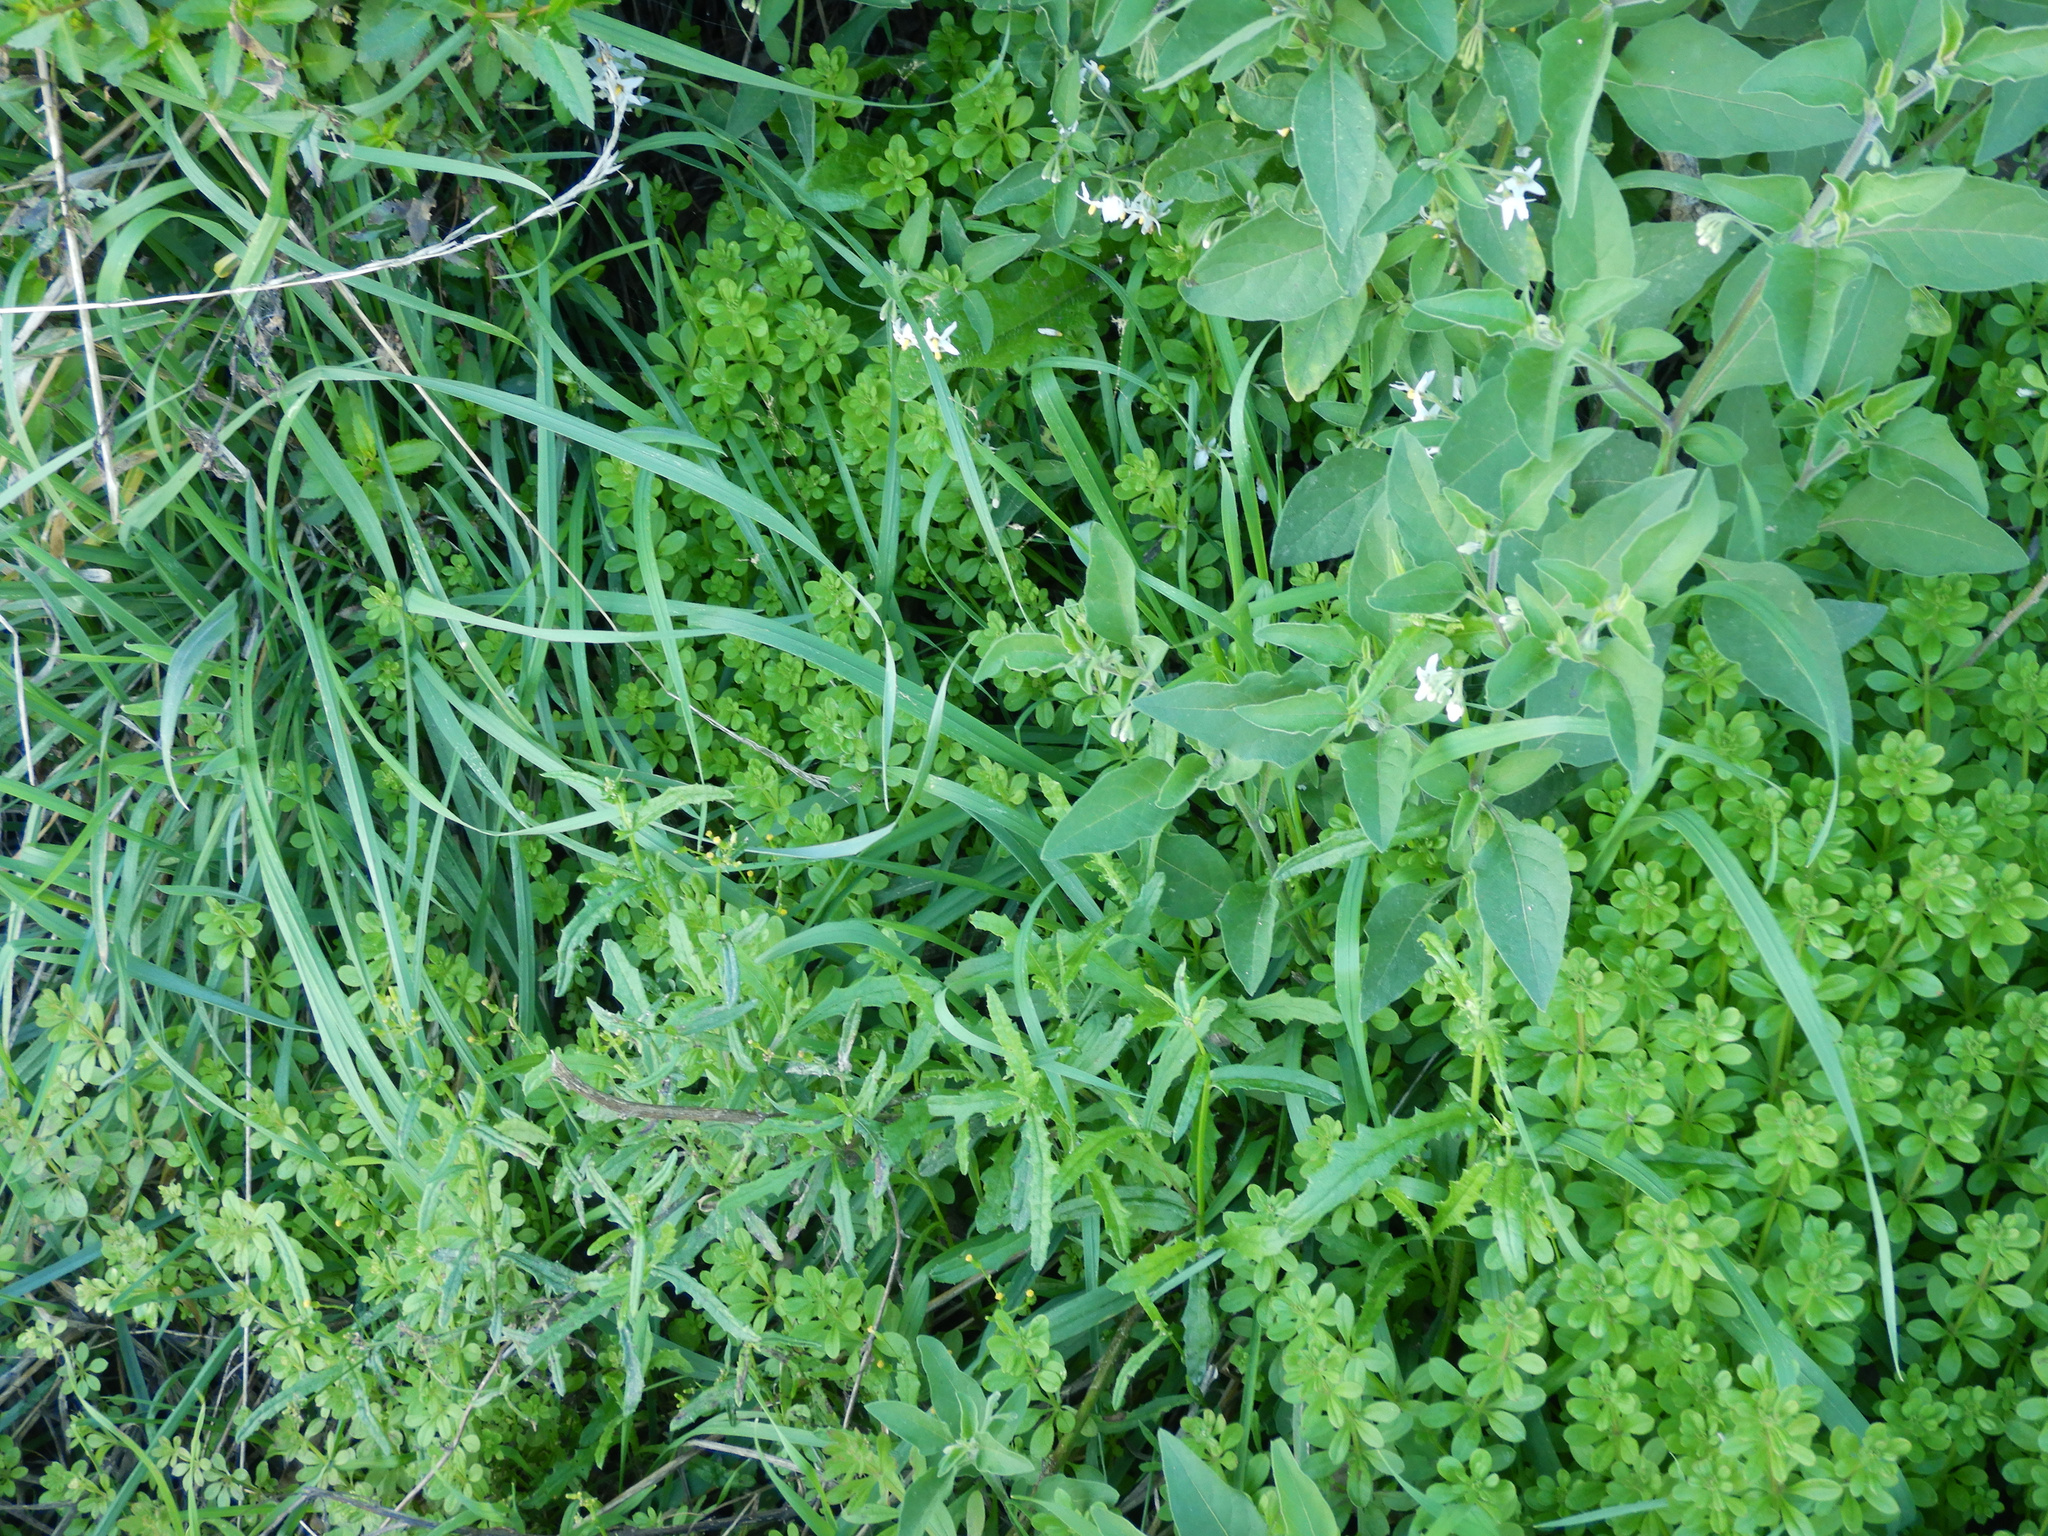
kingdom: Plantae
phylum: Tracheophyta
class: Magnoliopsida
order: Gentianales
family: Rubiaceae
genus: Galium
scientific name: Galium aparine
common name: Cleavers
